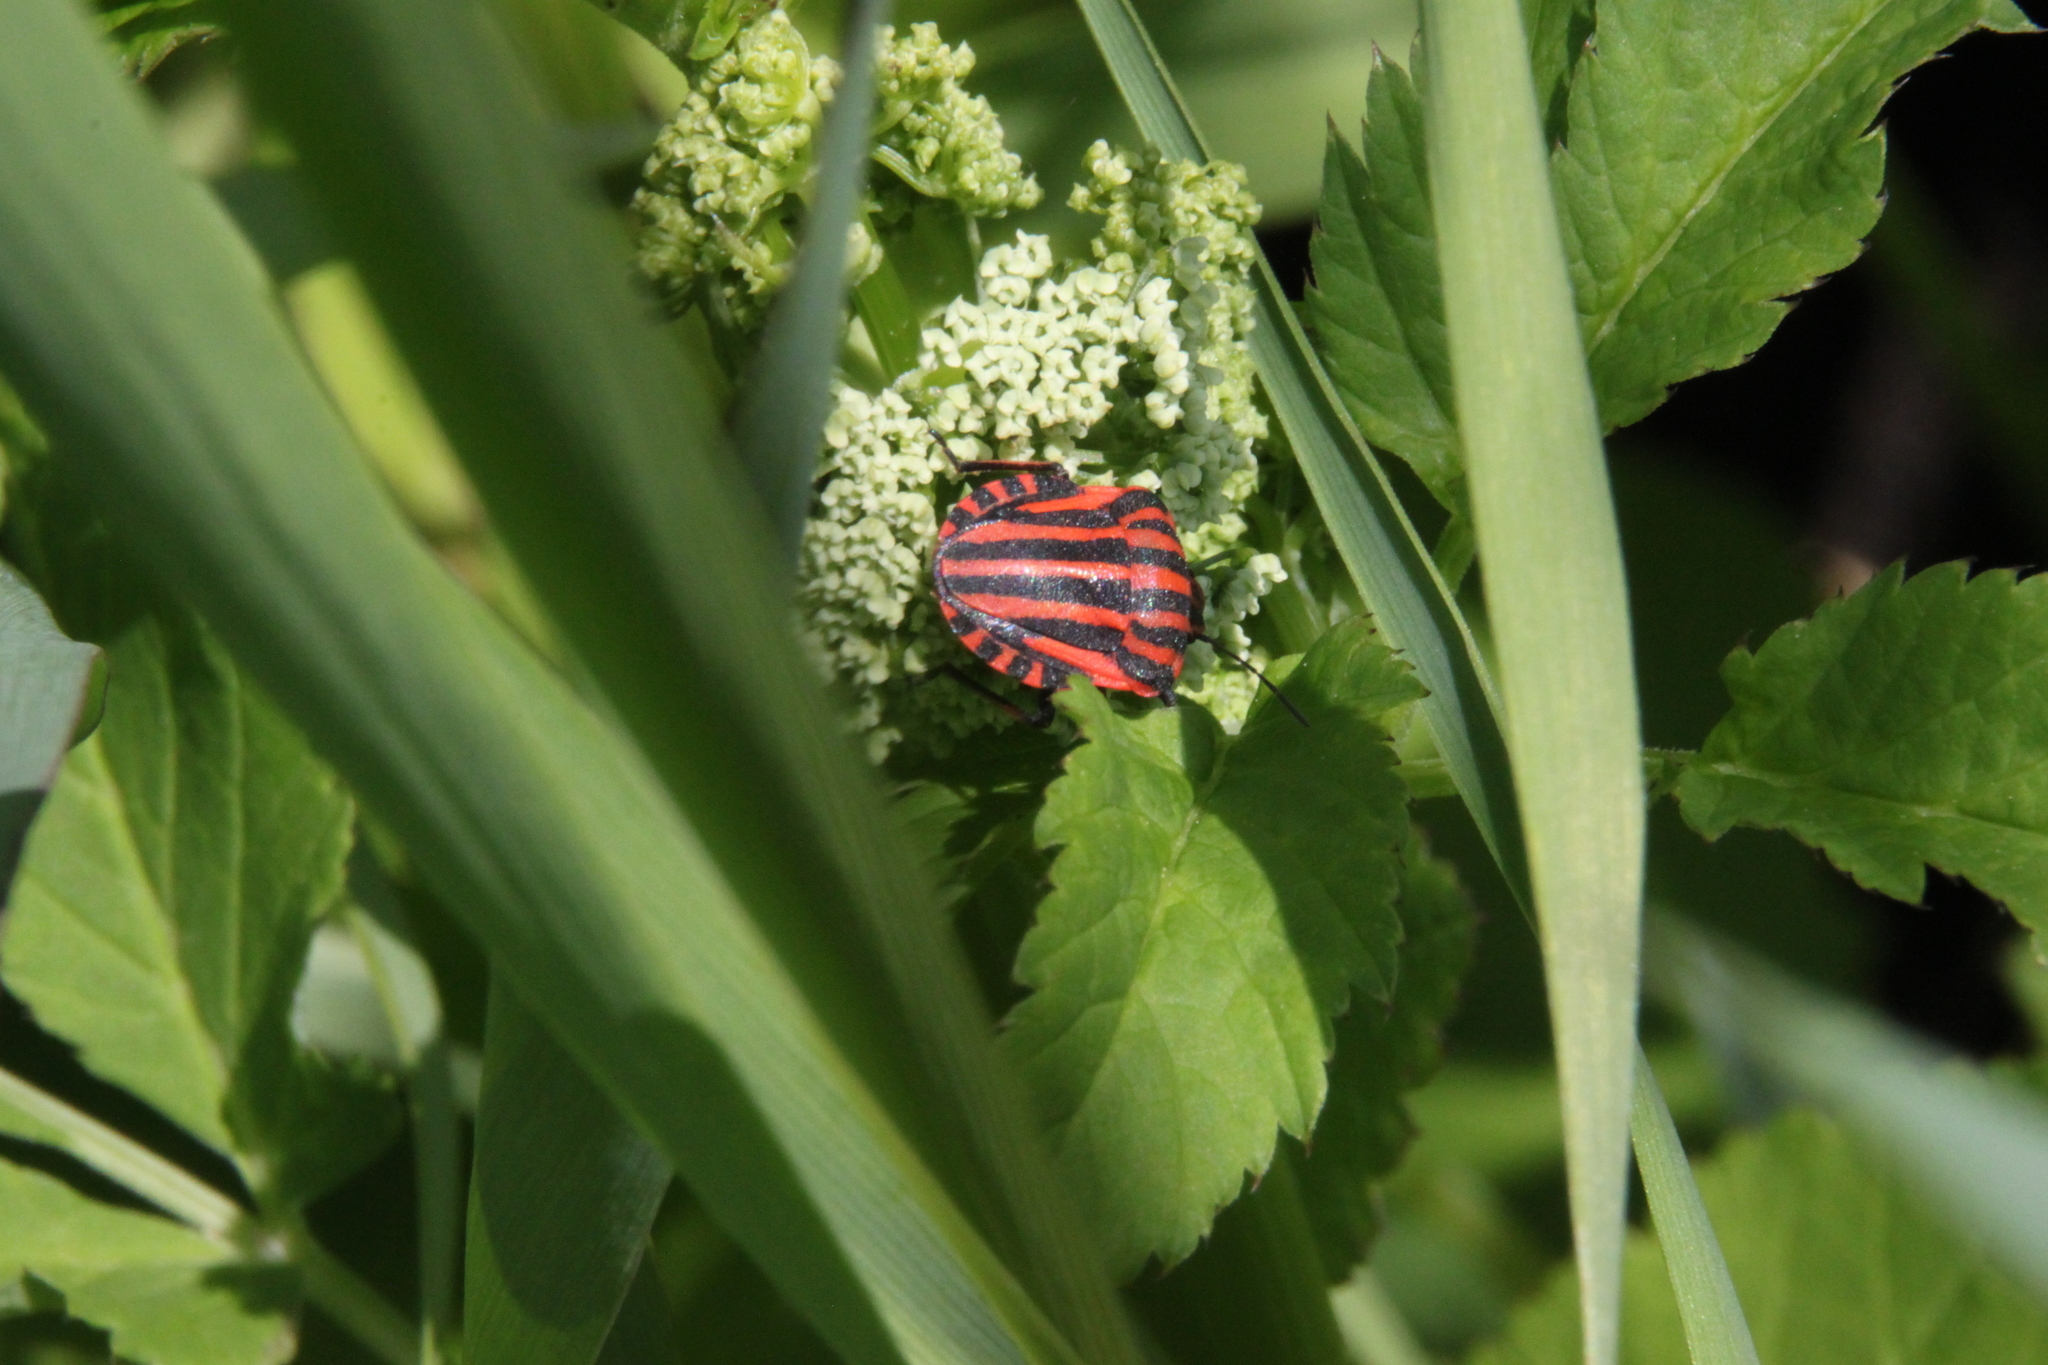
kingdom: Animalia
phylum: Arthropoda
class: Insecta
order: Hemiptera
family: Pentatomidae
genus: Graphosoma
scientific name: Graphosoma italicum
